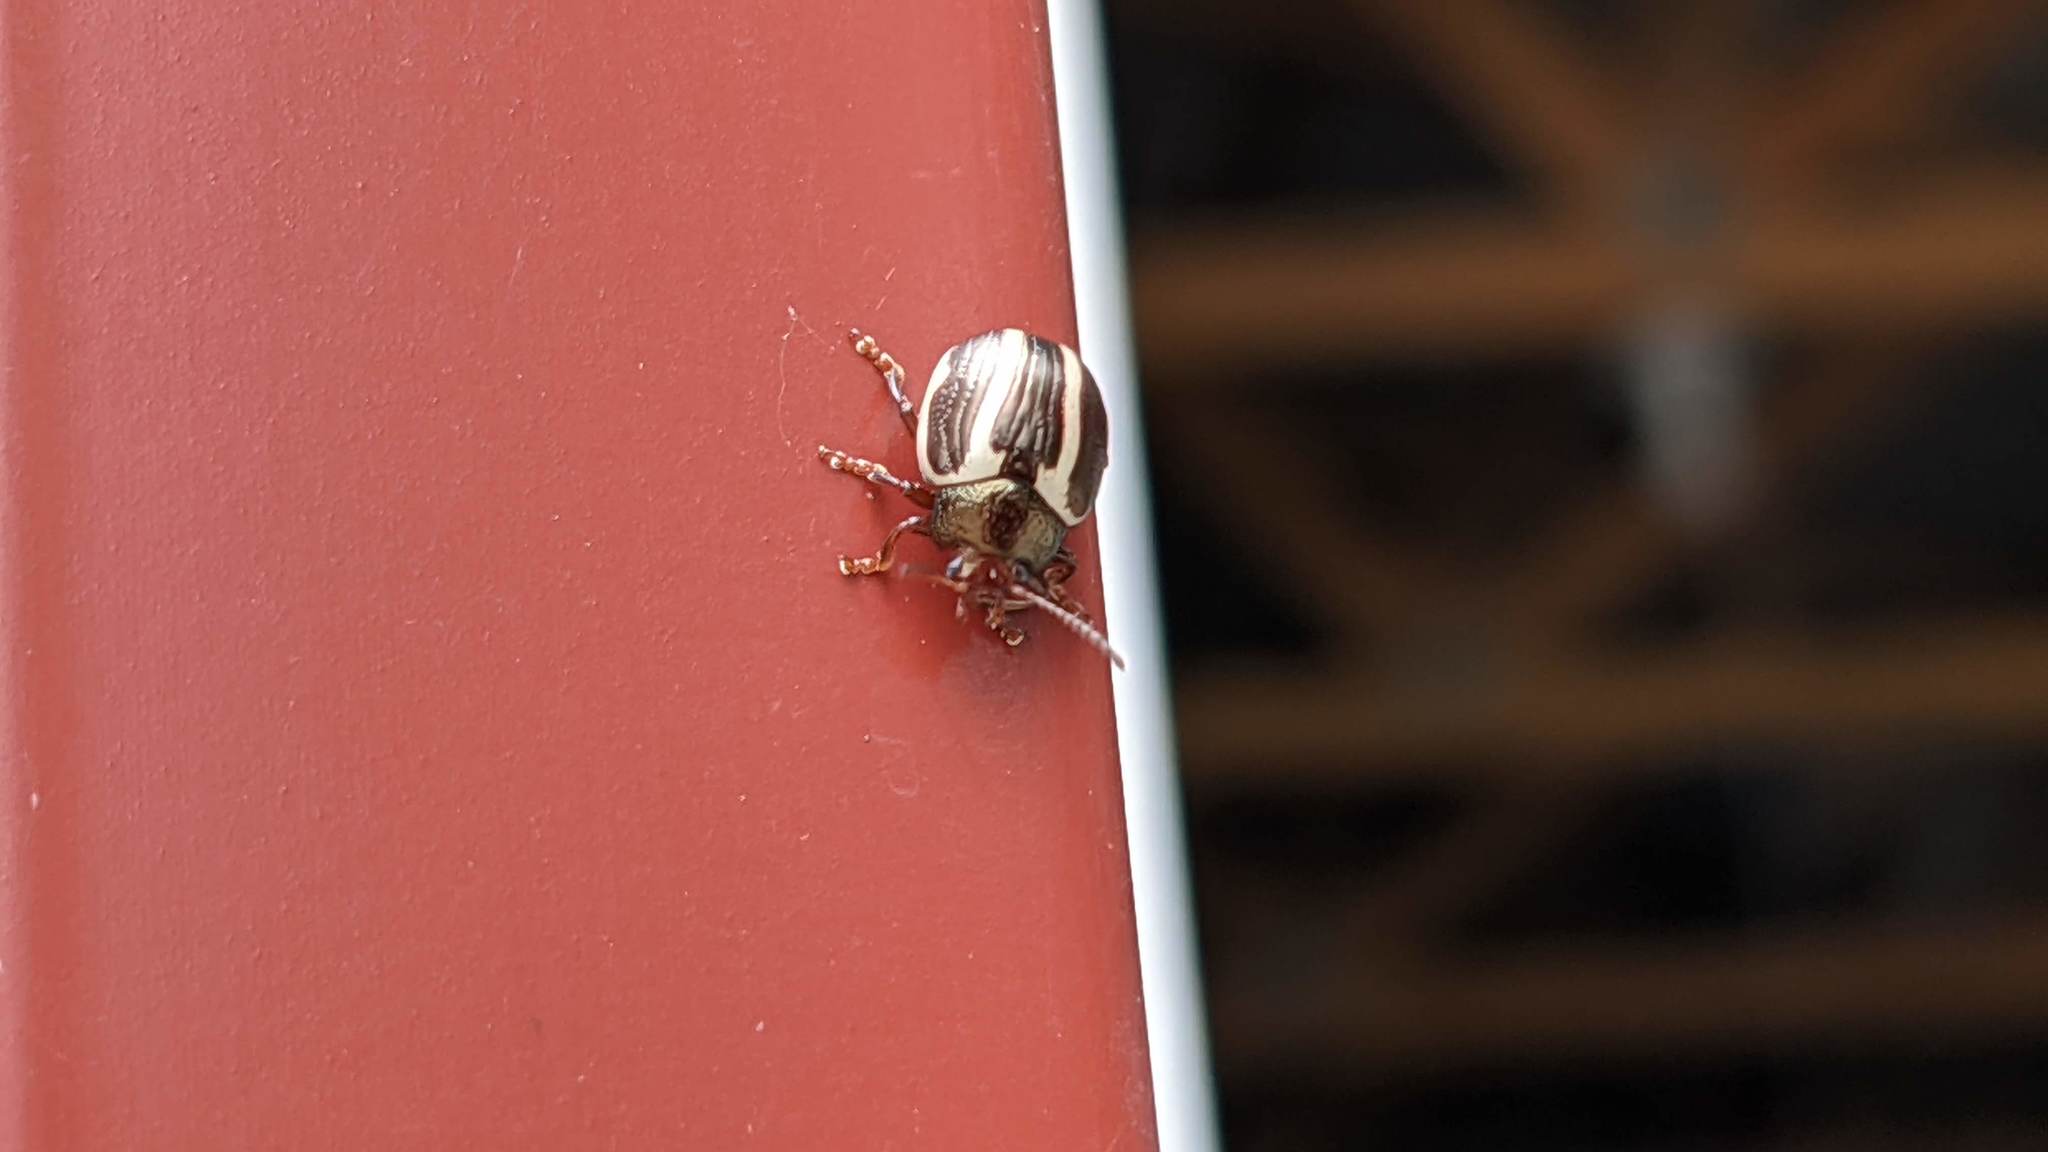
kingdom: Animalia
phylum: Arthropoda
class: Insecta
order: Coleoptera
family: Chrysomelidae
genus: Calligrapha
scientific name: Calligrapha bidenticola
